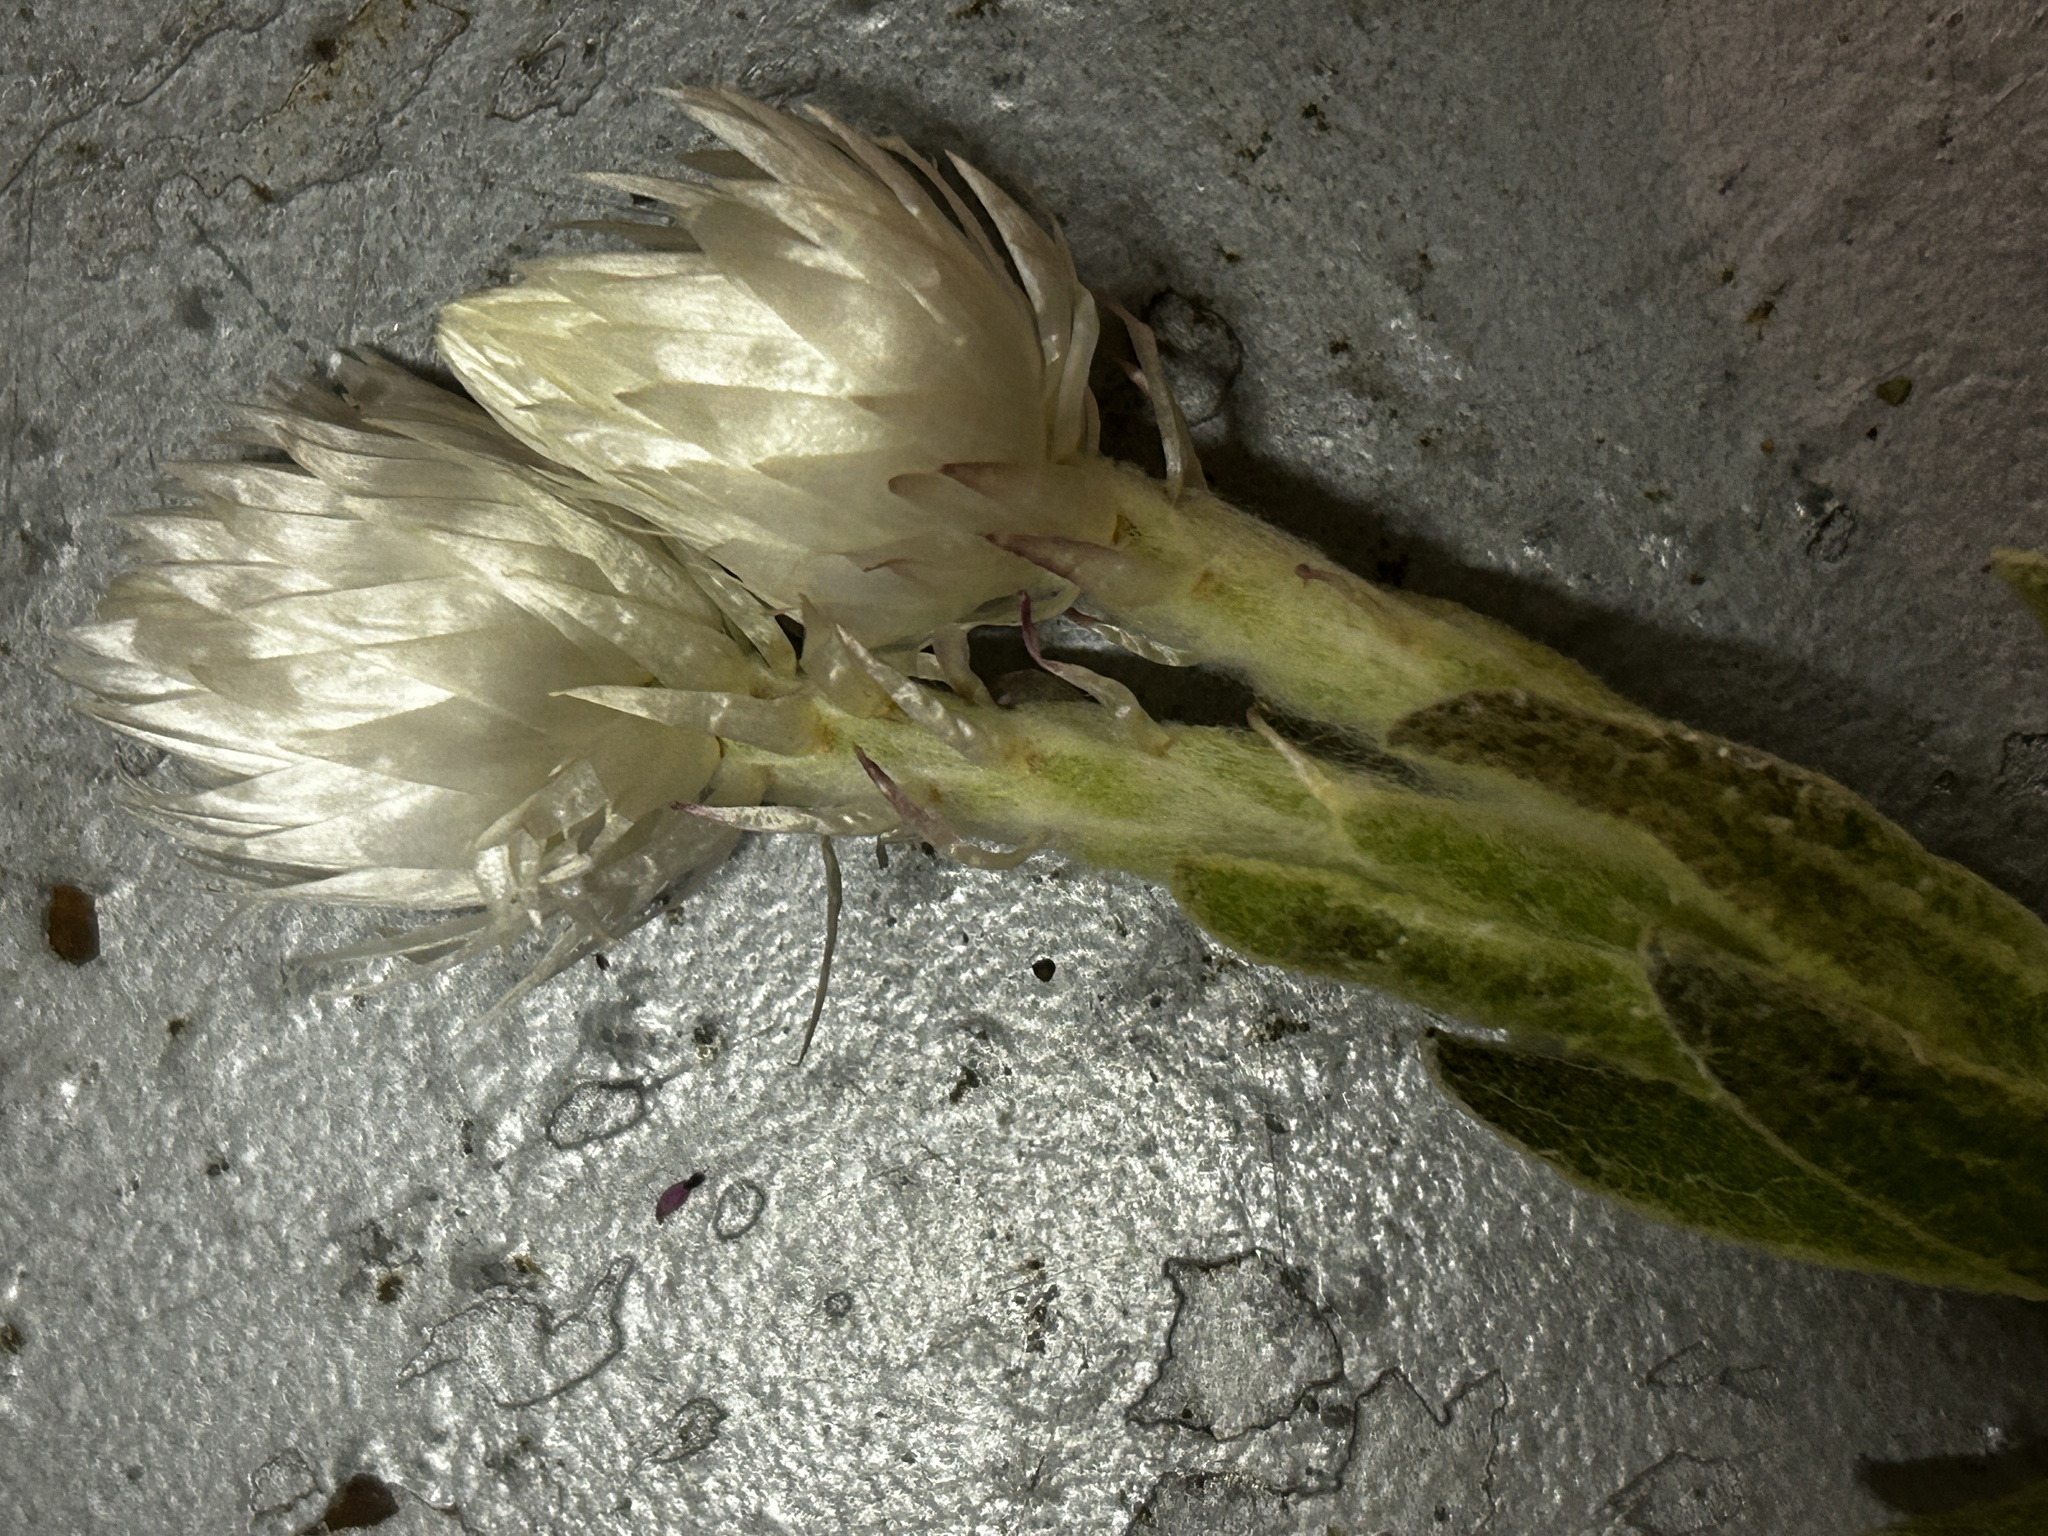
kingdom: Plantae
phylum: Tracheophyta
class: Magnoliopsida
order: Asterales
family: Asteraceae
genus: Syncarpha
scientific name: Syncarpha vestita
